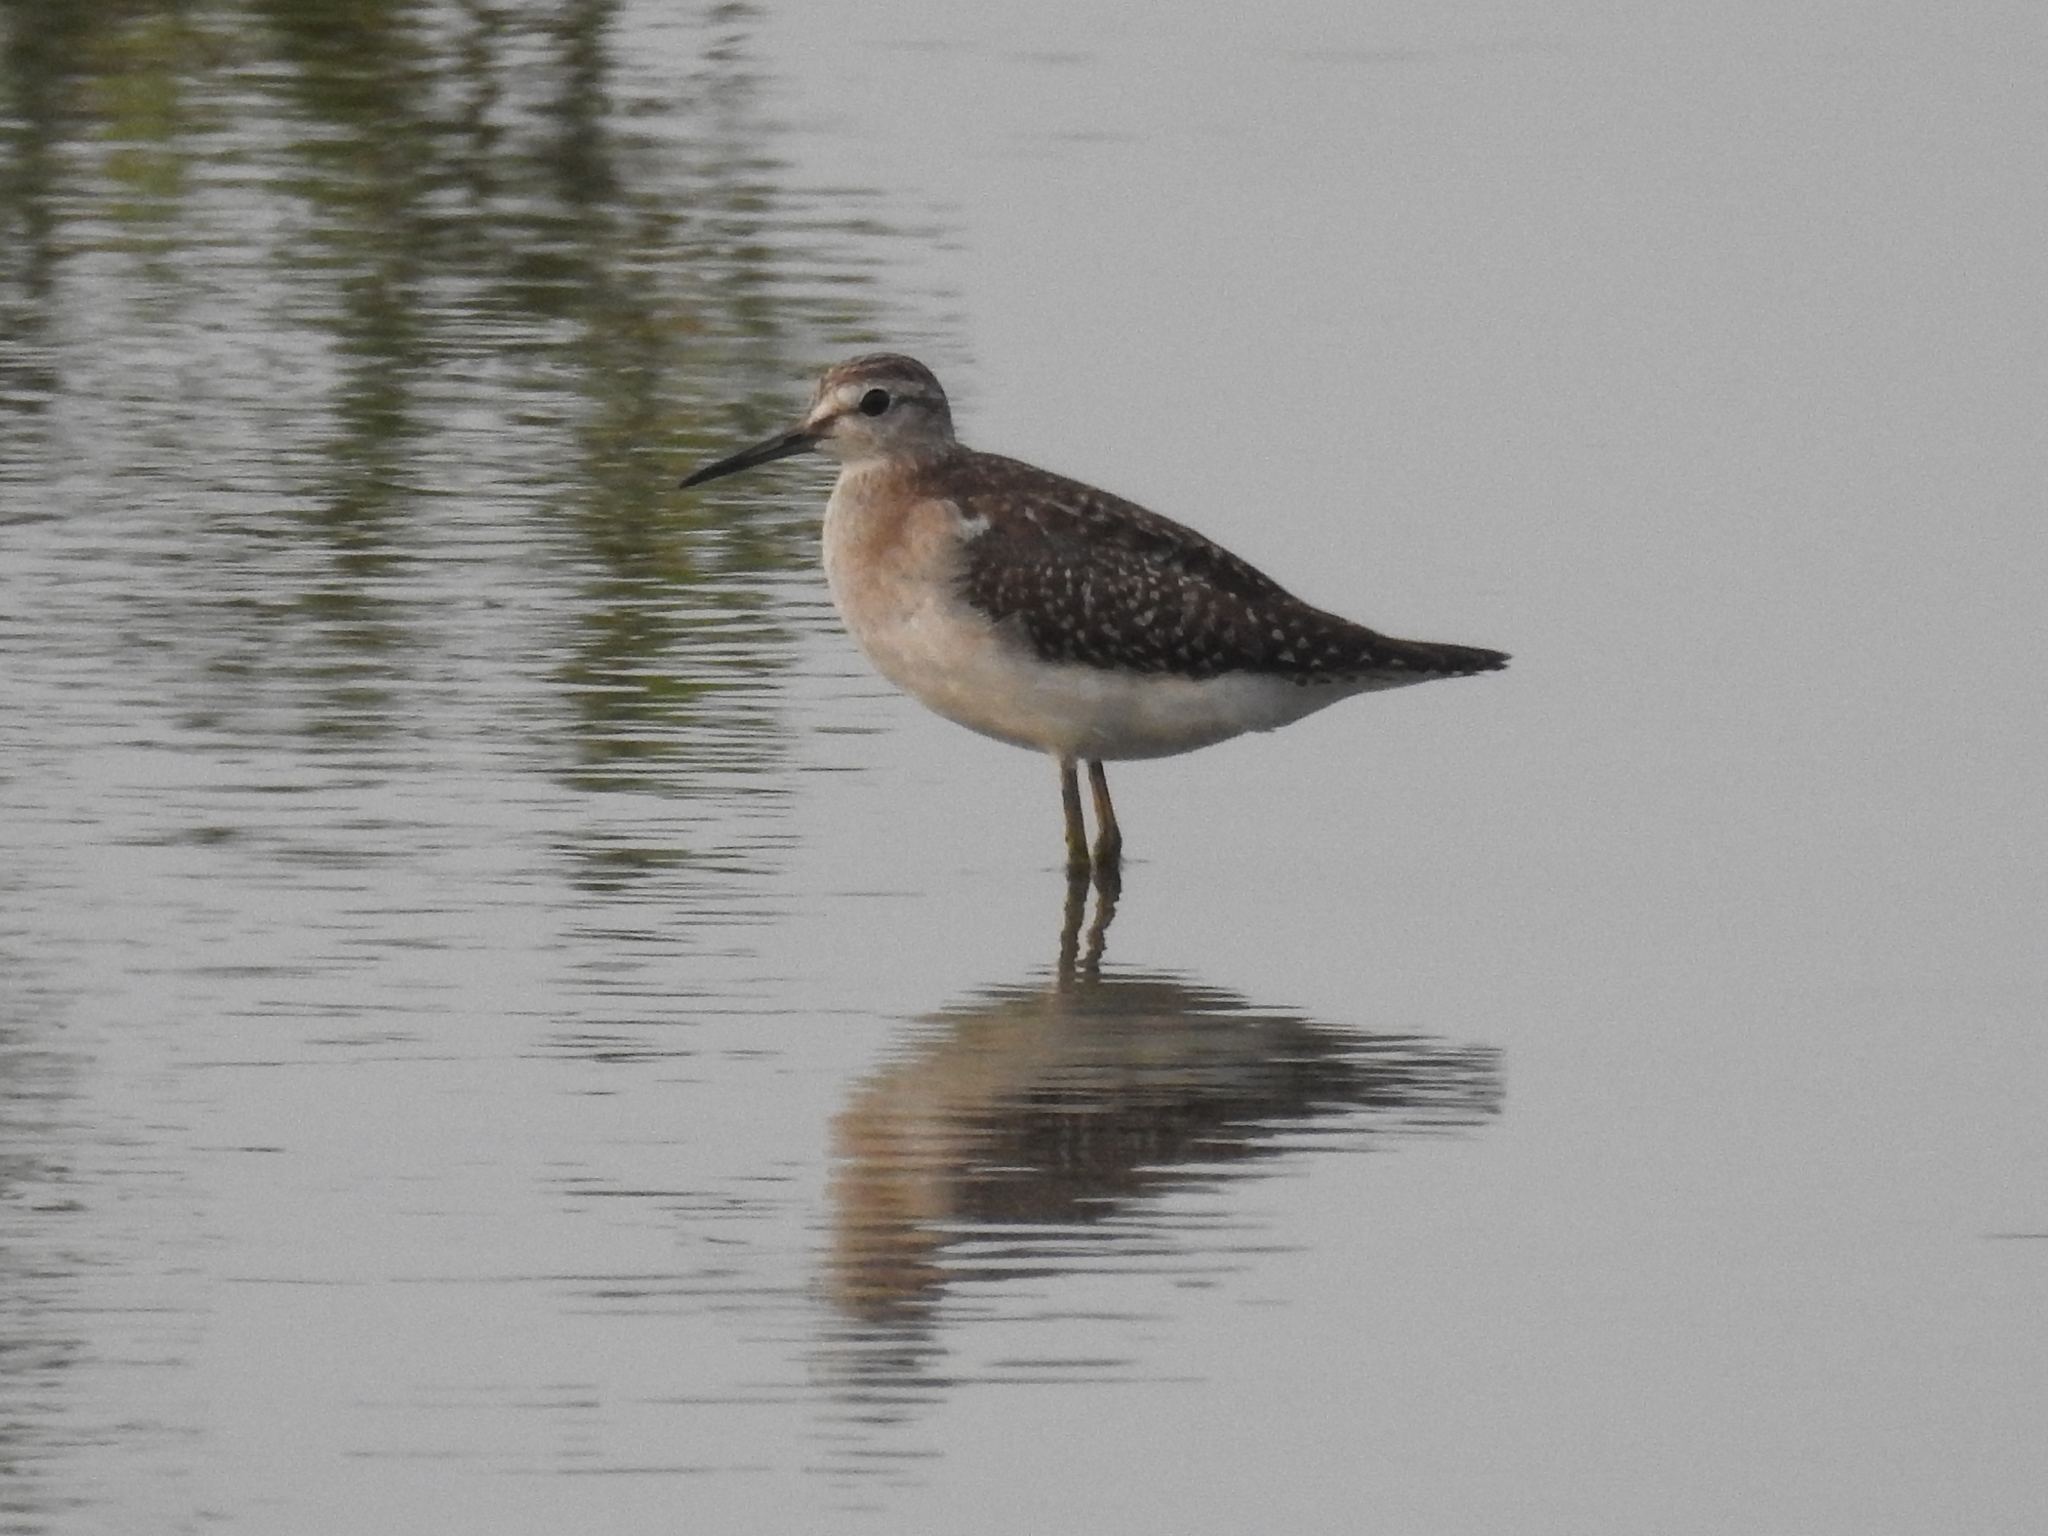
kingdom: Animalia
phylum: Chordata
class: Aves
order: Charadriiformes
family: Scolopacidae
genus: Tringa
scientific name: Tringa glareola
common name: Wood sandpiper
